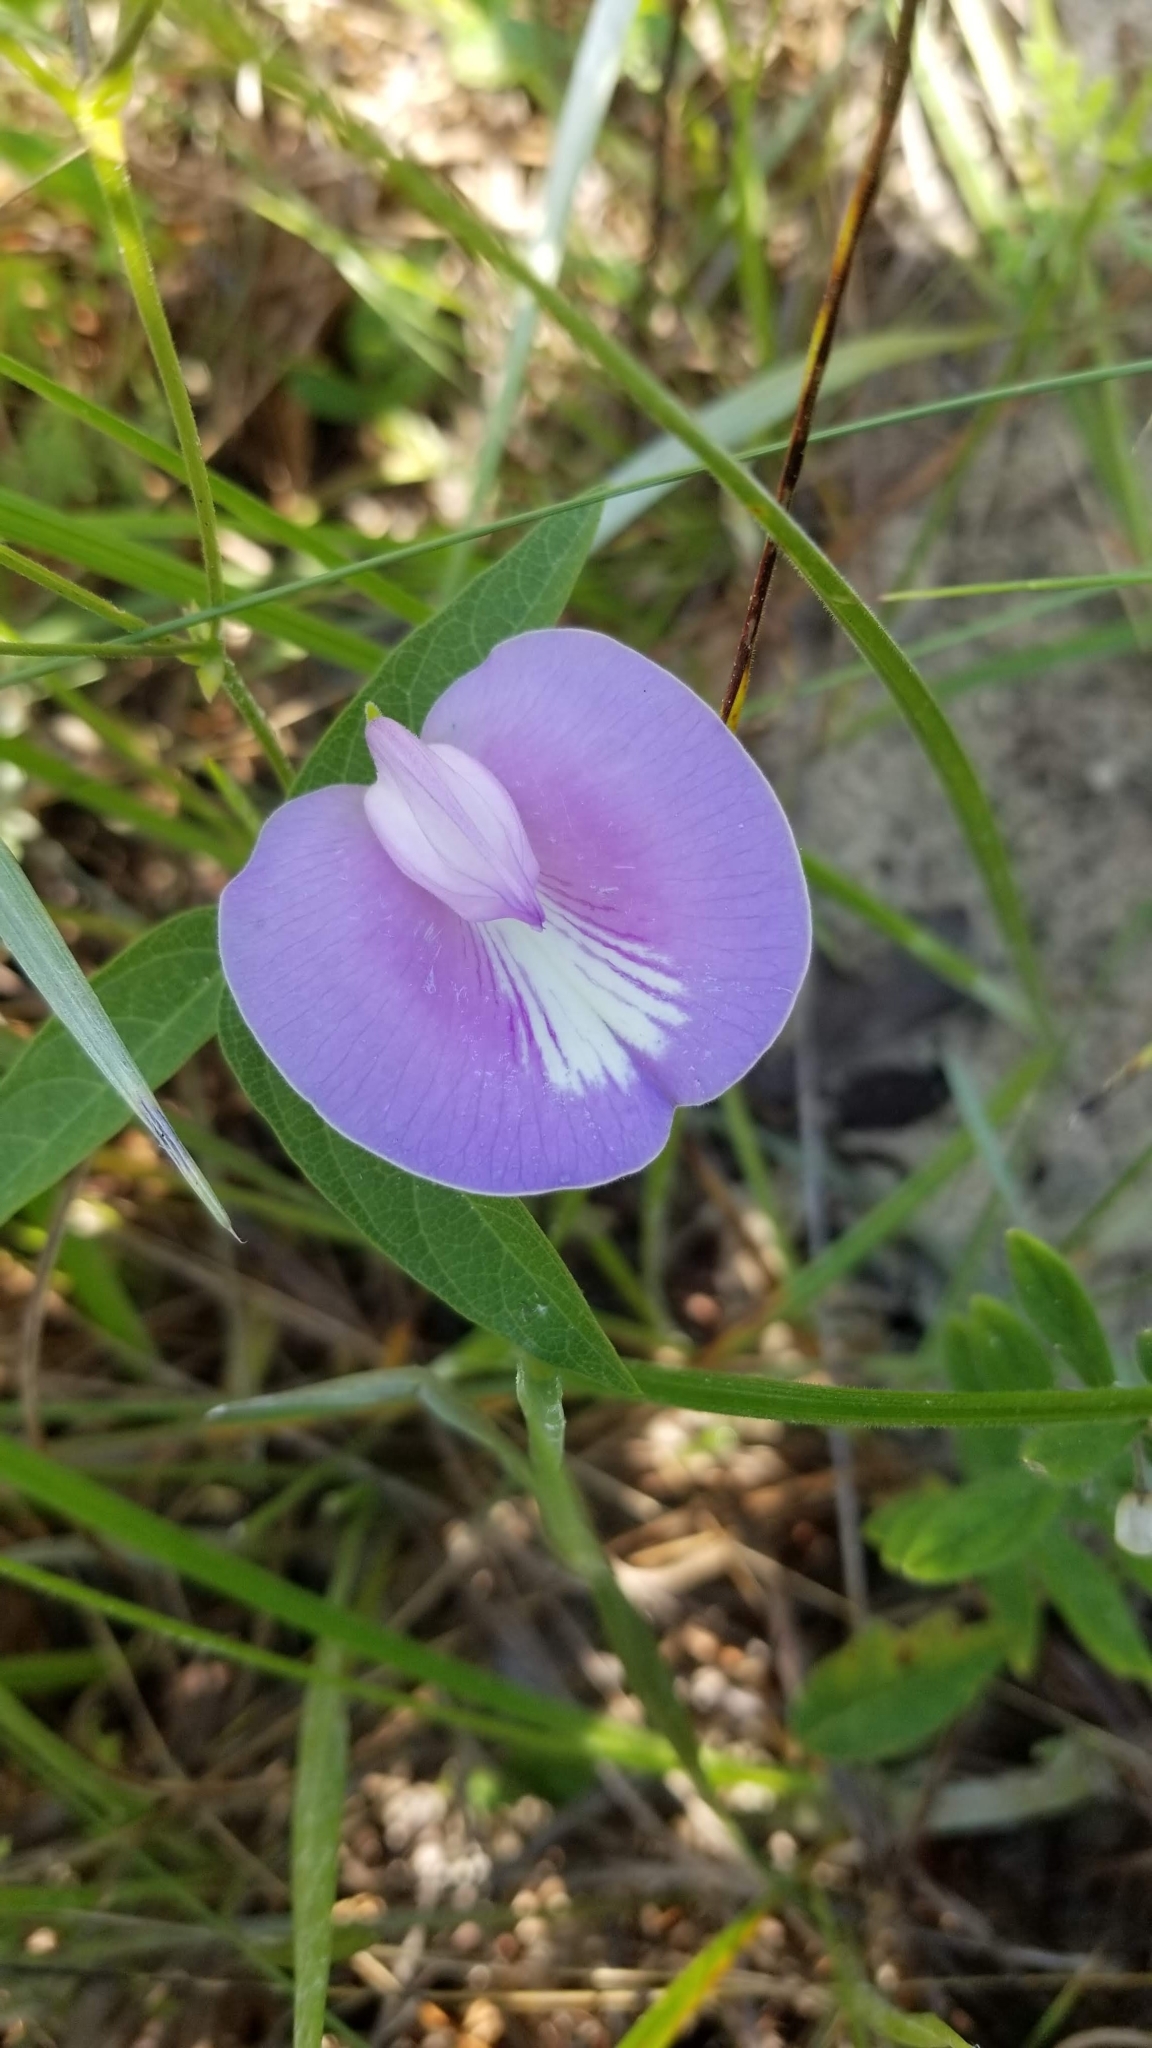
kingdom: Plantae
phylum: Tracheophyta
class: Magnoliopsida
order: Fabales
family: Fabaceae
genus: Centrosema
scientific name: Centrosema virginianum
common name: Butterfly-pea
